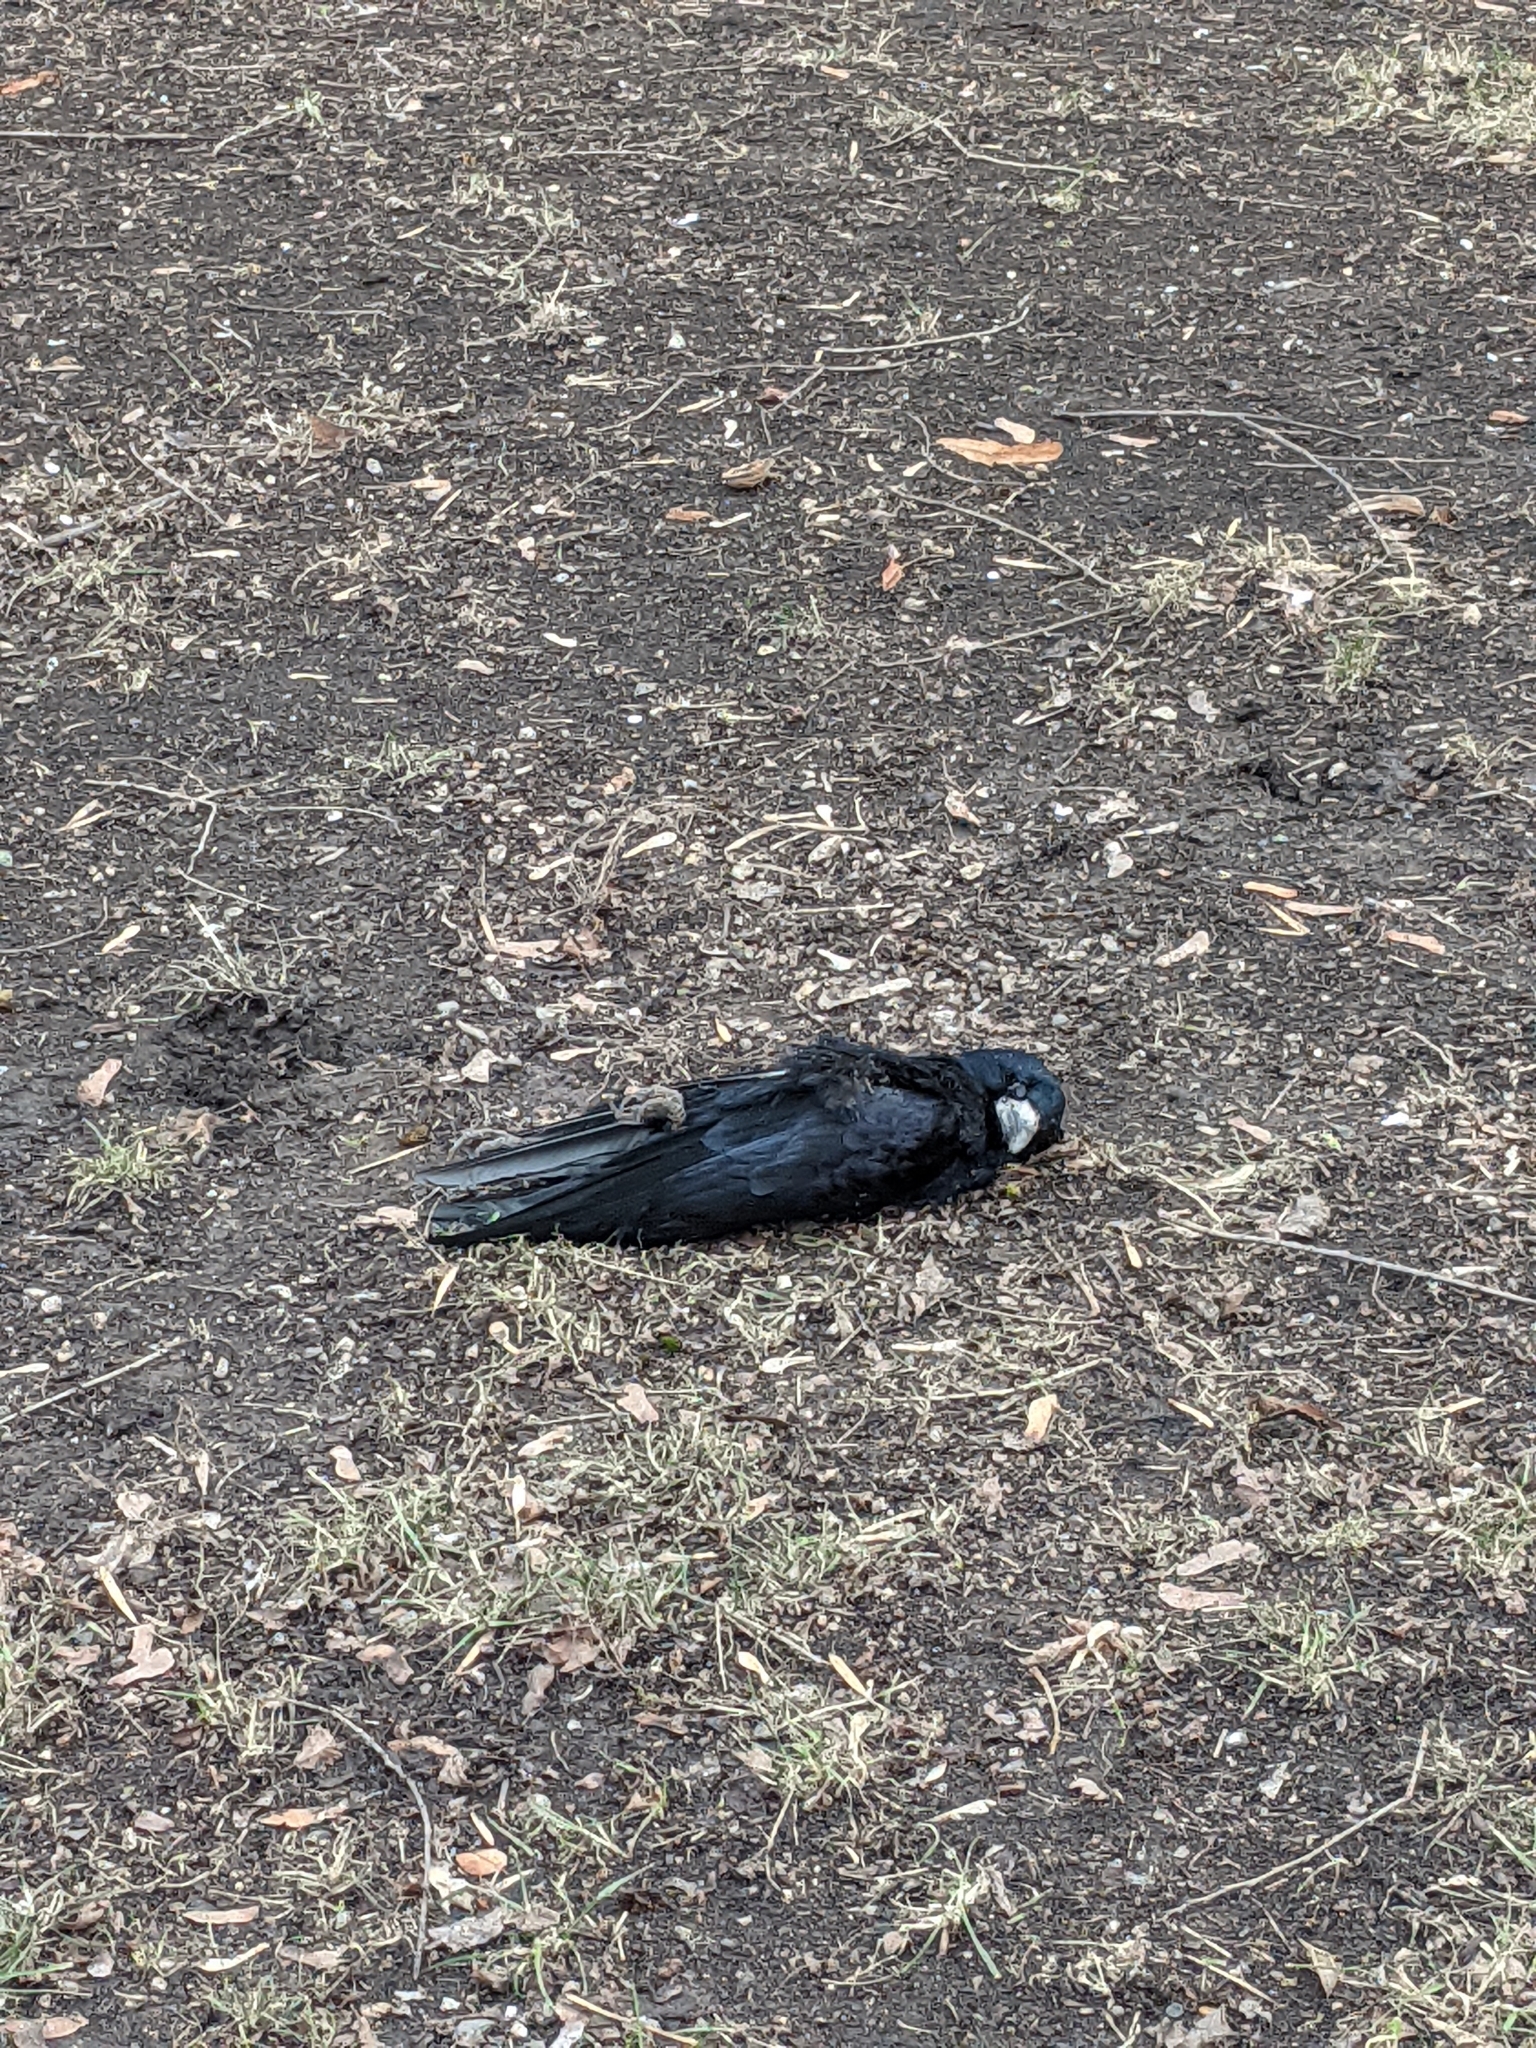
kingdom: Animalia
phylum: Chordata
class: Aves
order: Passeriformes
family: Corvidae
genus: Corvus
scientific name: Corvus frugilegus
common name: Rook
